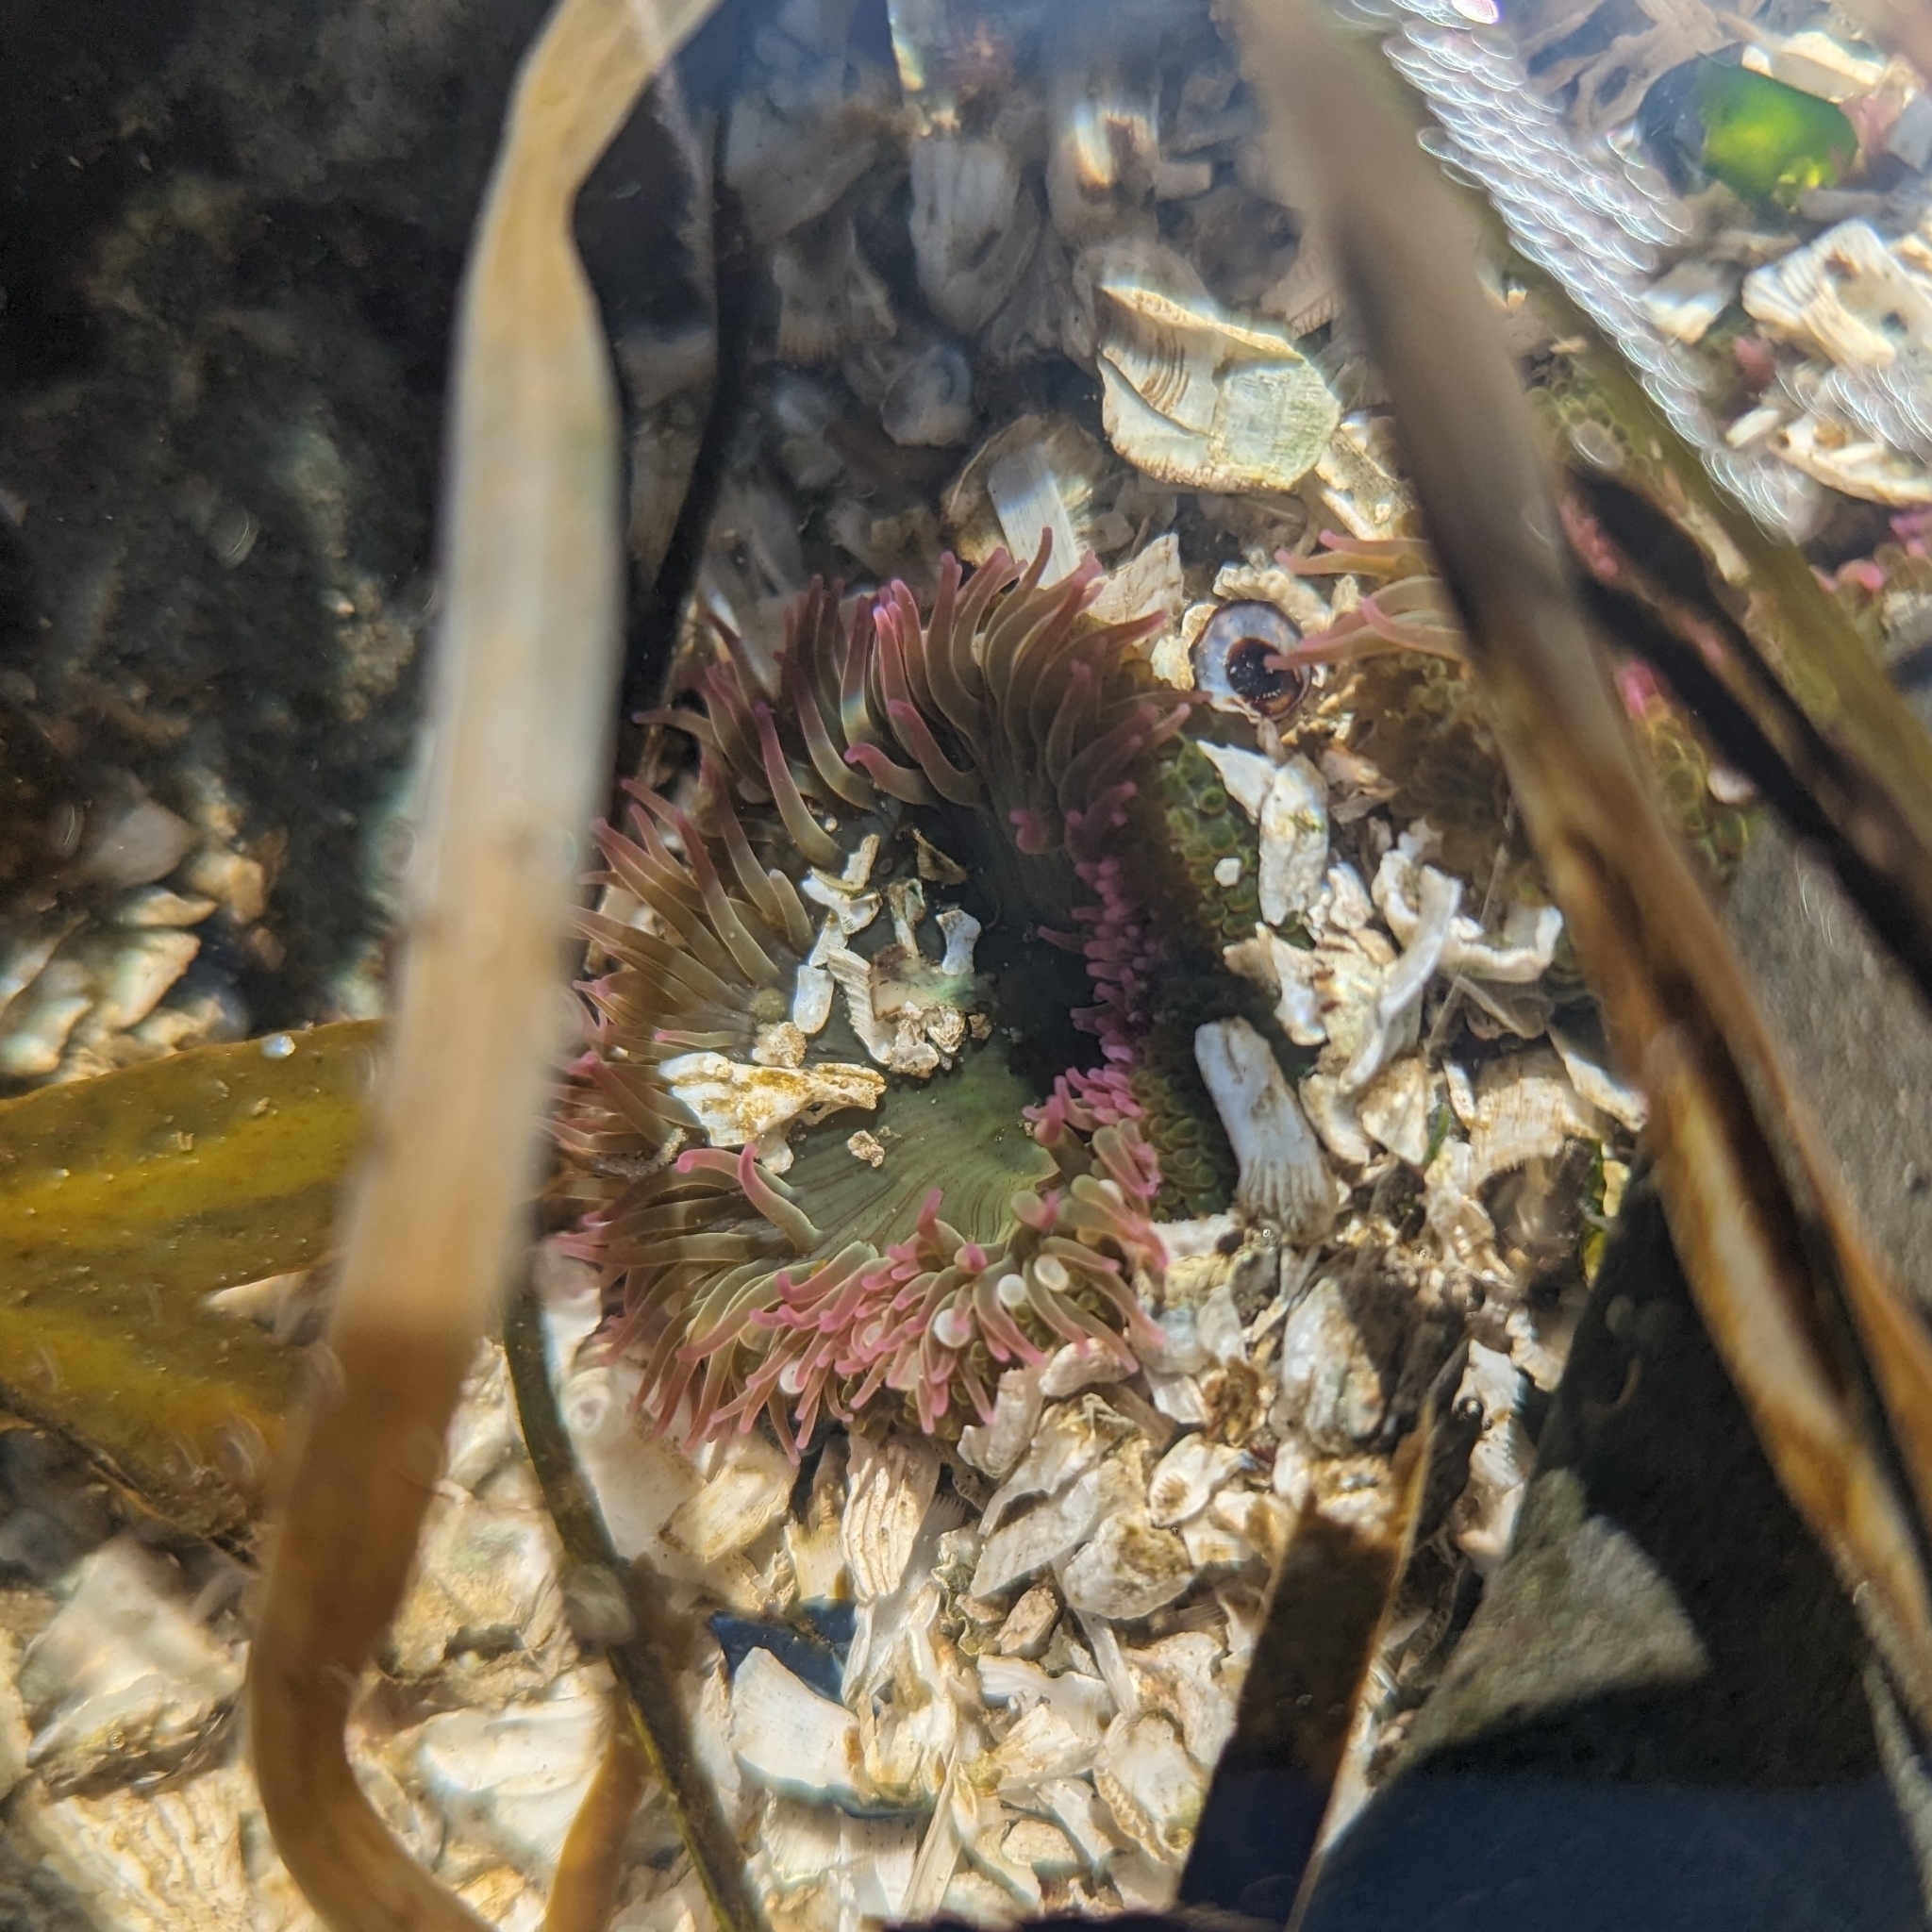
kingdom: Animalia
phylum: Cnidaria
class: Anthozoa
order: Actiniaria
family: Actiniidae
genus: Anthopleura
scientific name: Anthopleura elegantissima
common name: Clonal anemone
